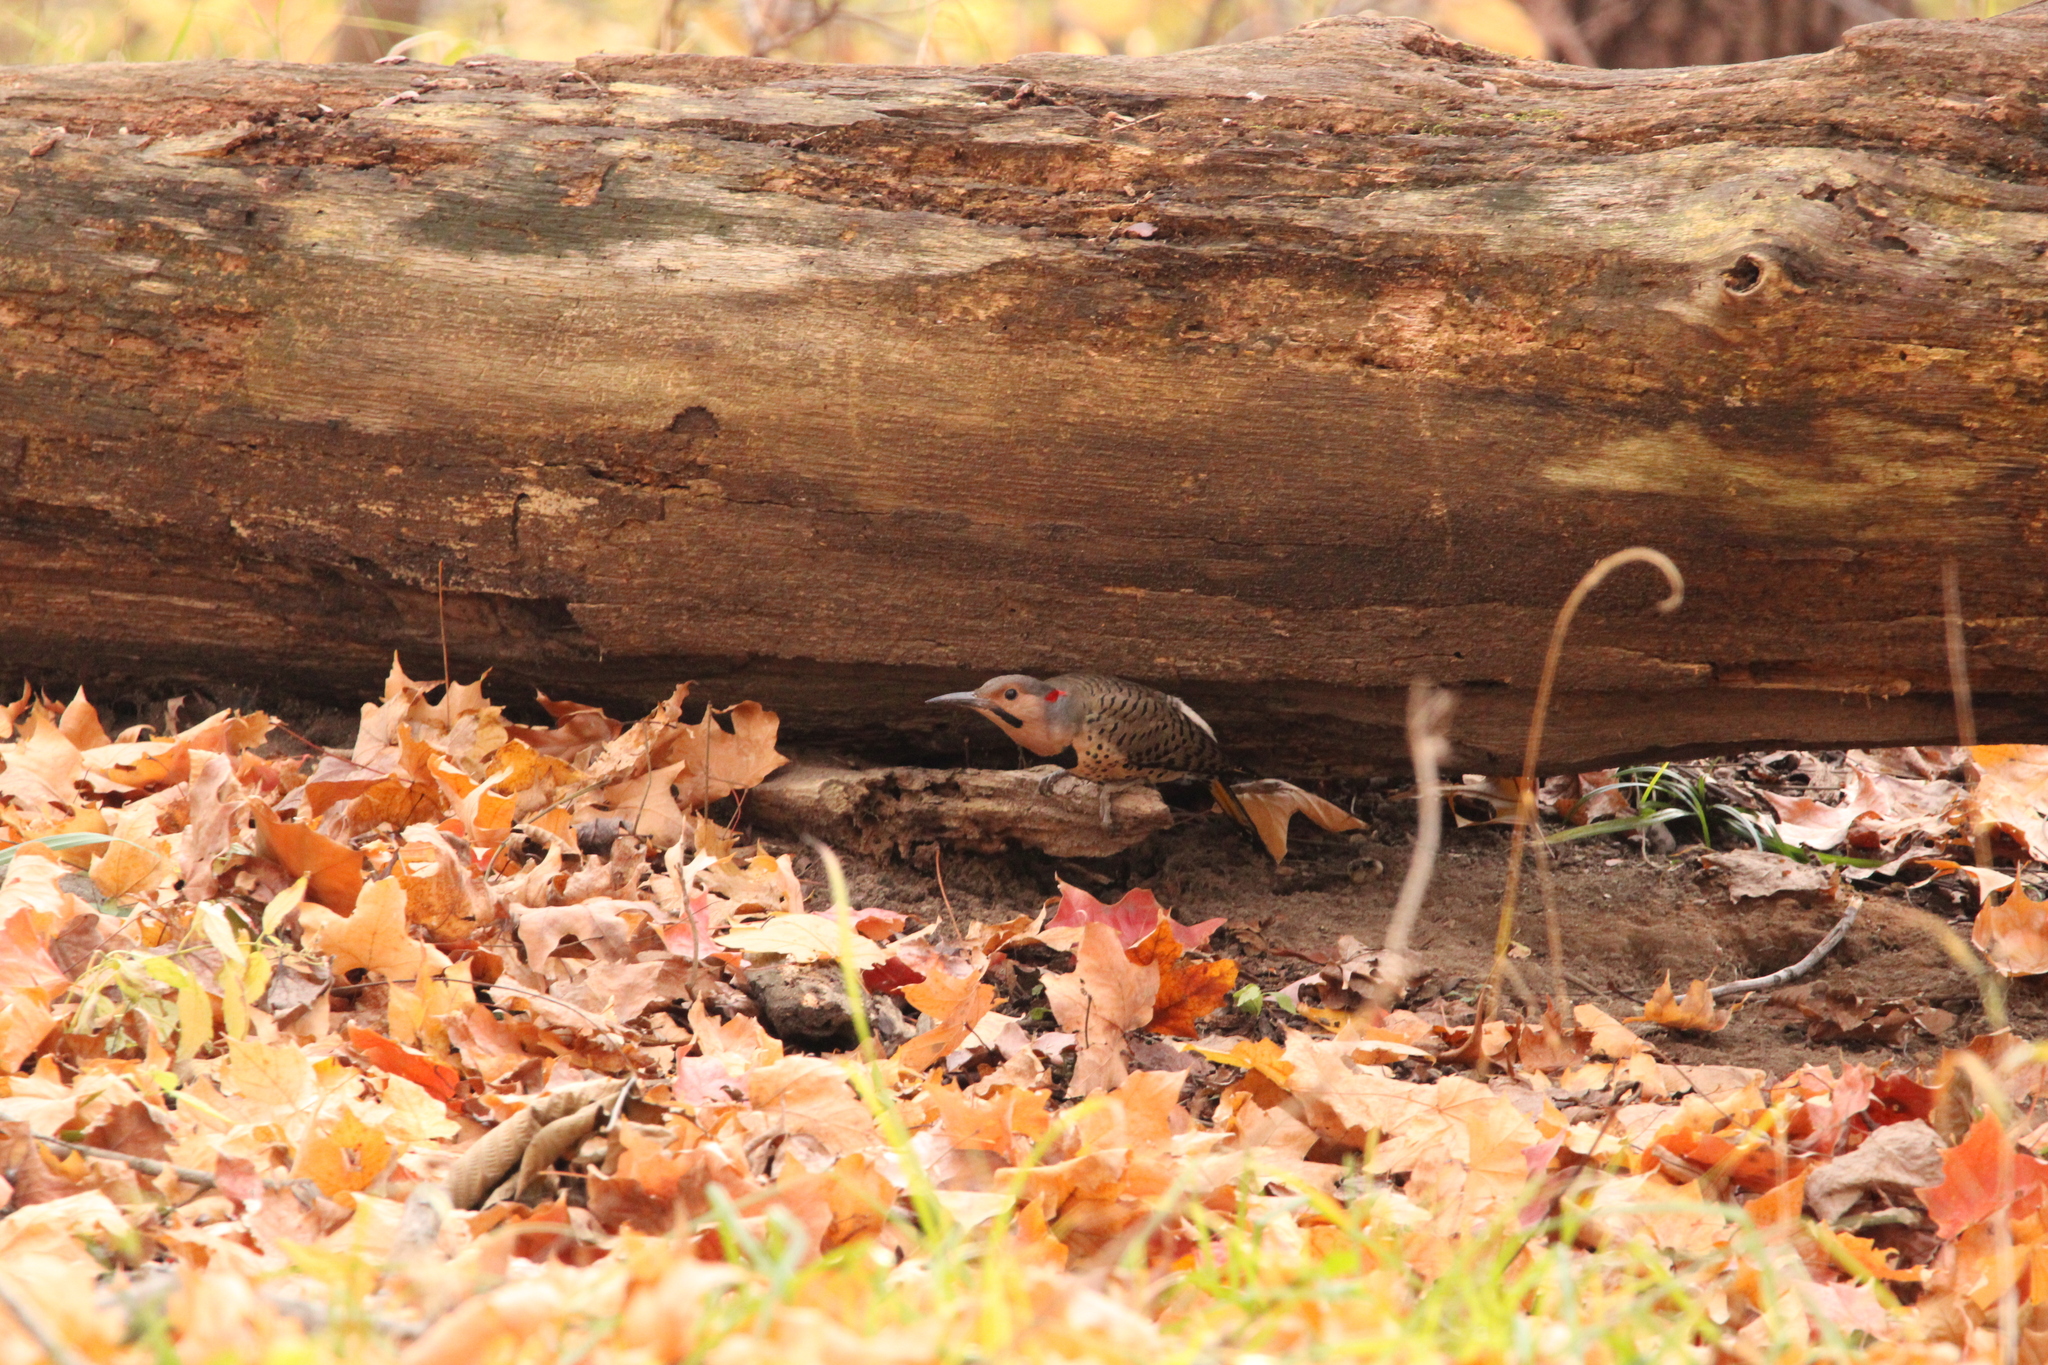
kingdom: Animalia
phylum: Chordata
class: Aves
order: Piciformes
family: Picidae
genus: Colaptes
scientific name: Colaptes auratus
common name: Northern flicker
